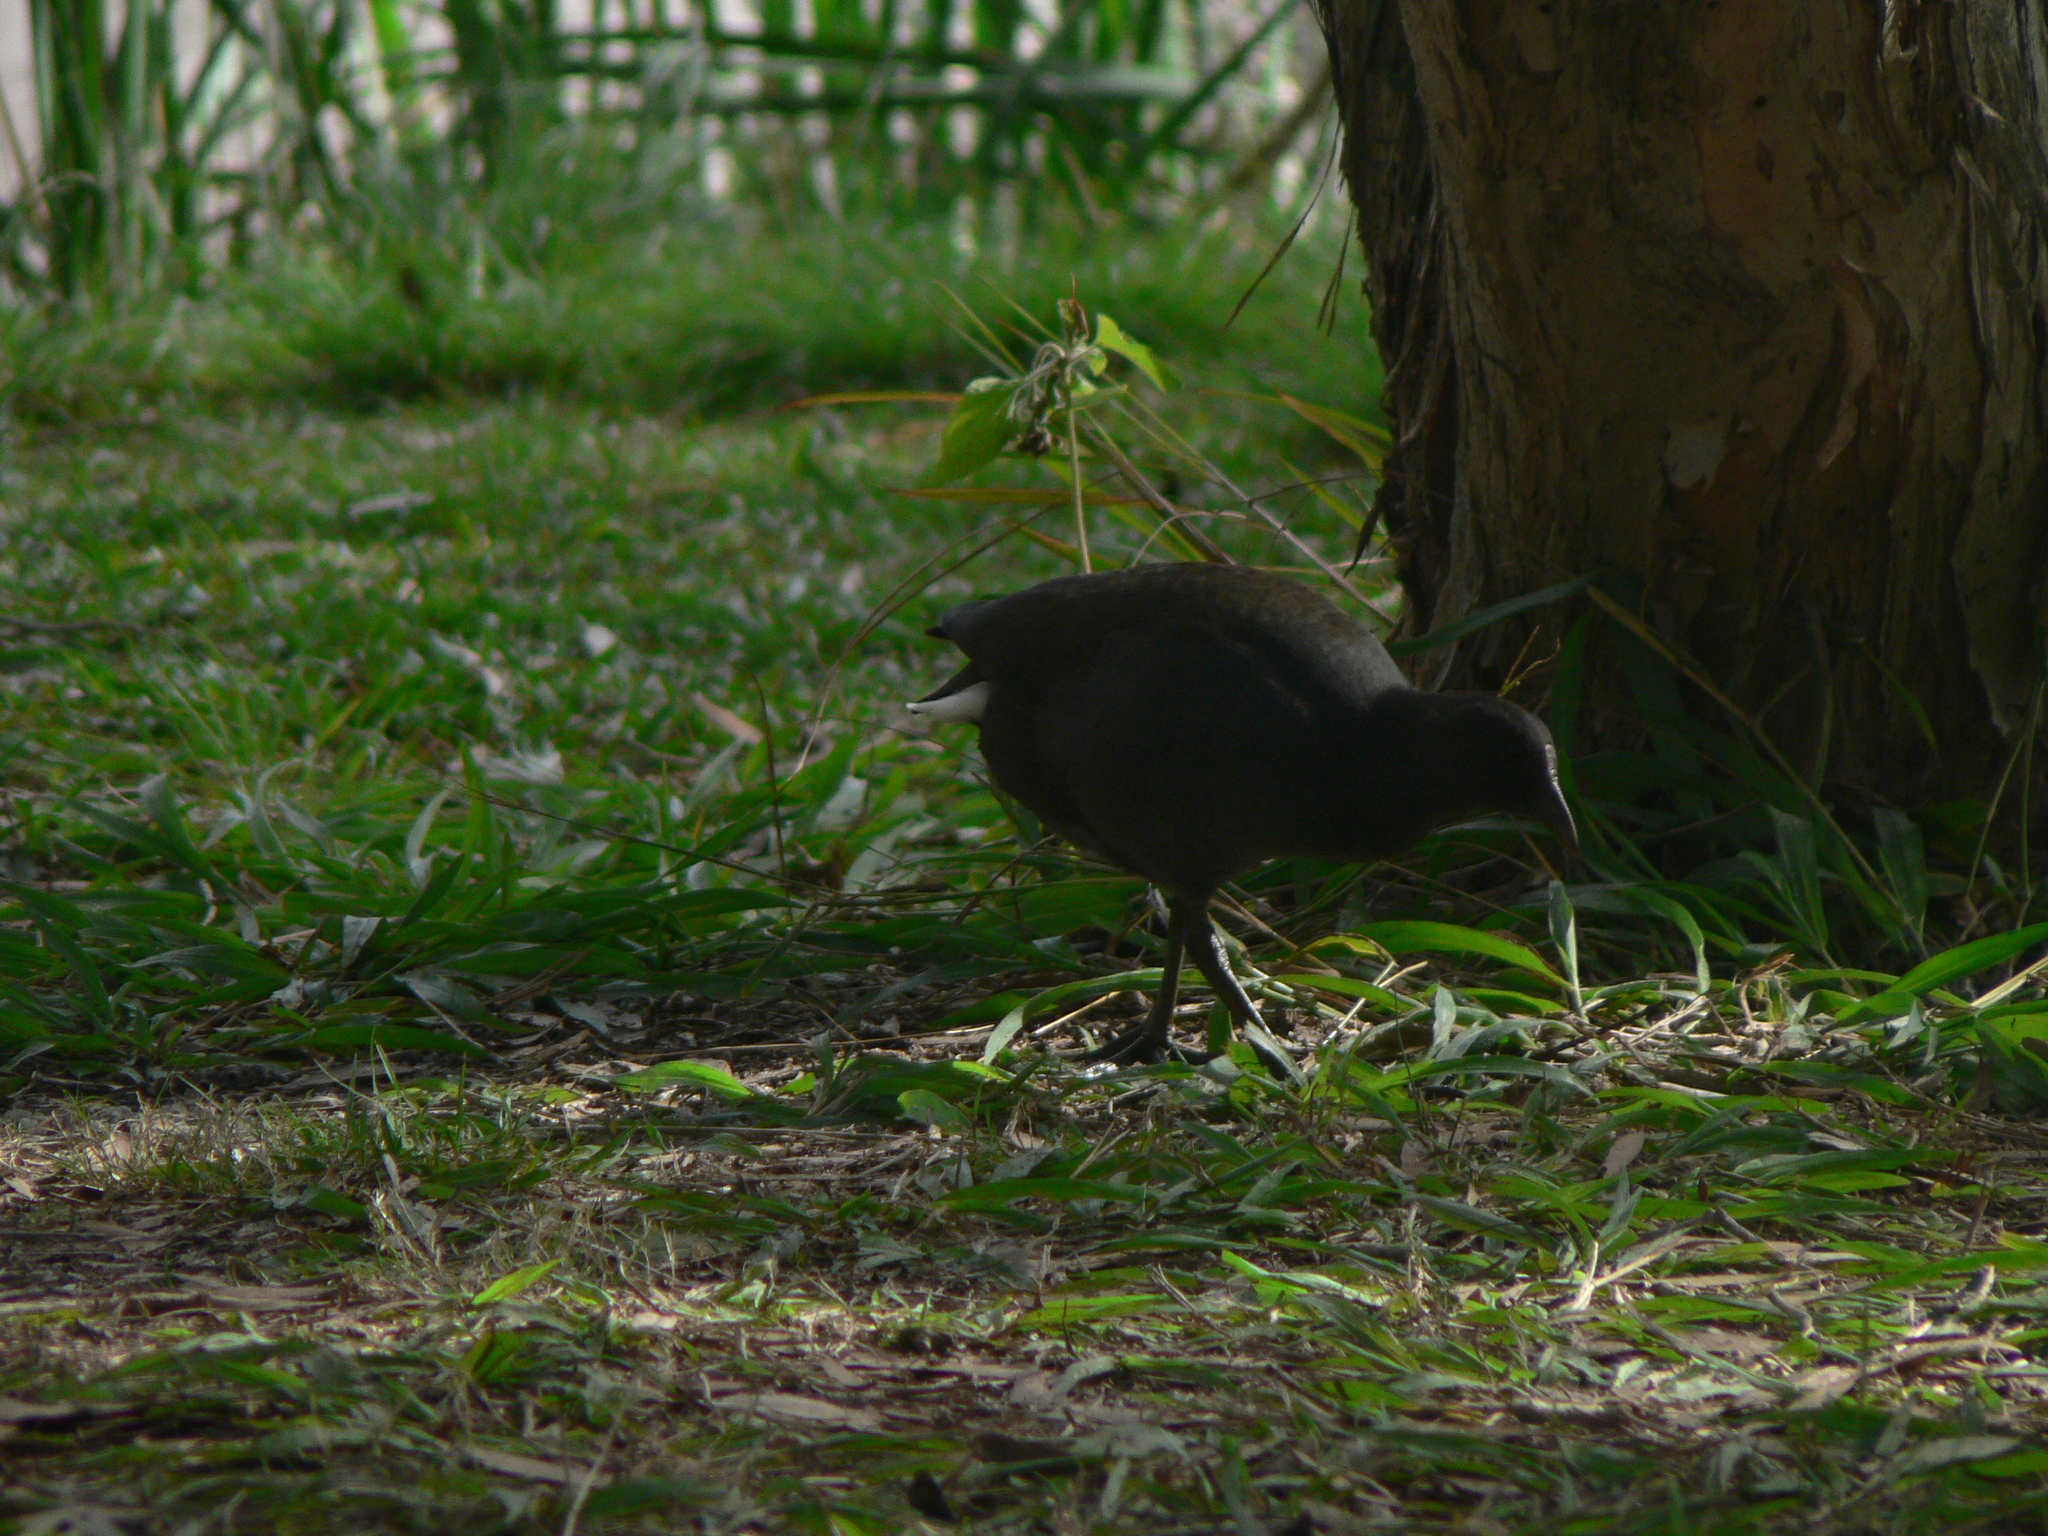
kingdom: Animalia
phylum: Chordata
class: Aves
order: Gruiformes
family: Rallidae
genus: Gallinula
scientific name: Gallinula tenebrosa
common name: Dusky moorhen
